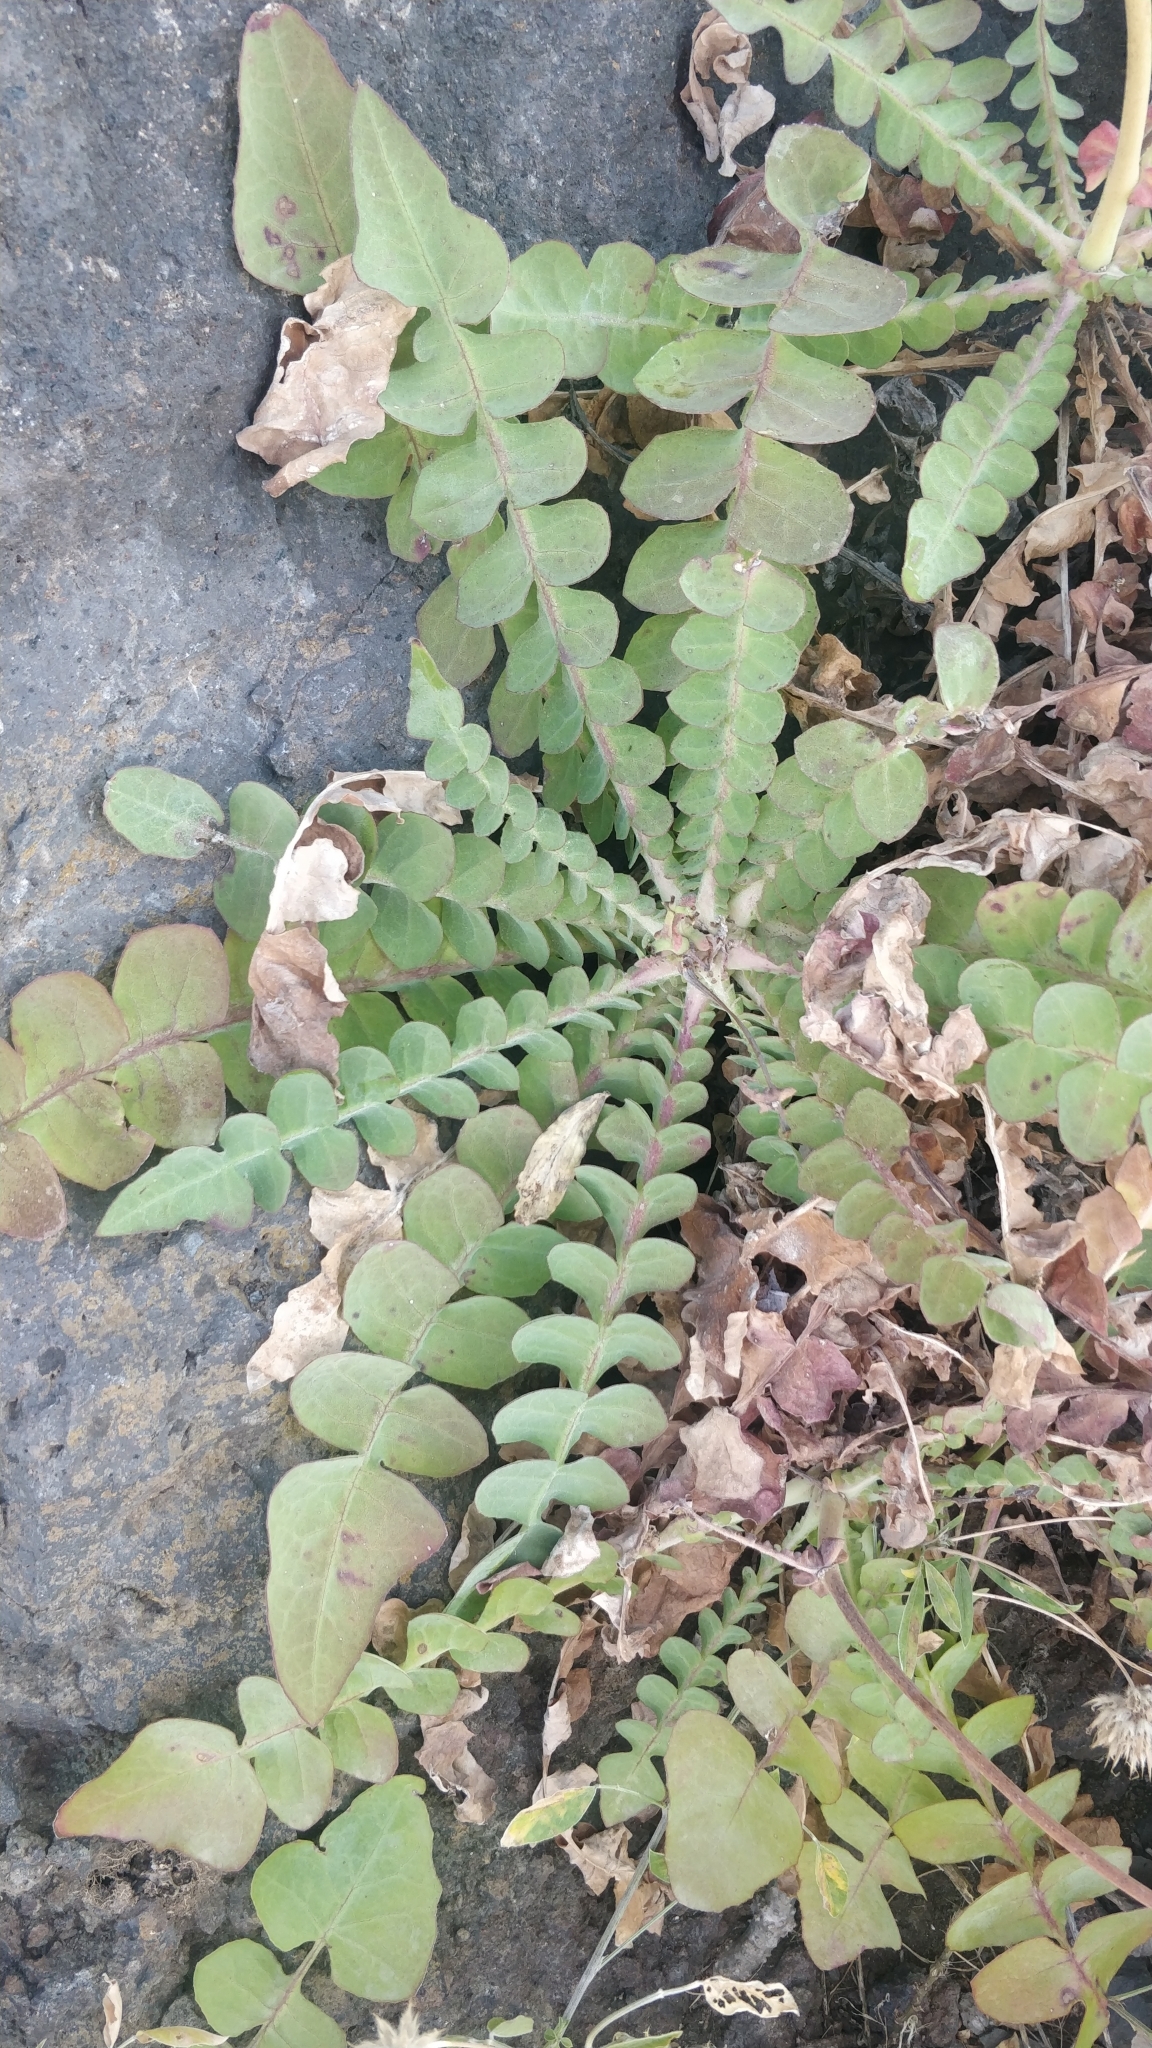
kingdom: Plantae
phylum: Tracheophyta
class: Magnoliopsida
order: Asterales
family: Asteraceae
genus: Sonchus
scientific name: Sonchus radicatus
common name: Long-rooted sow-thistle
